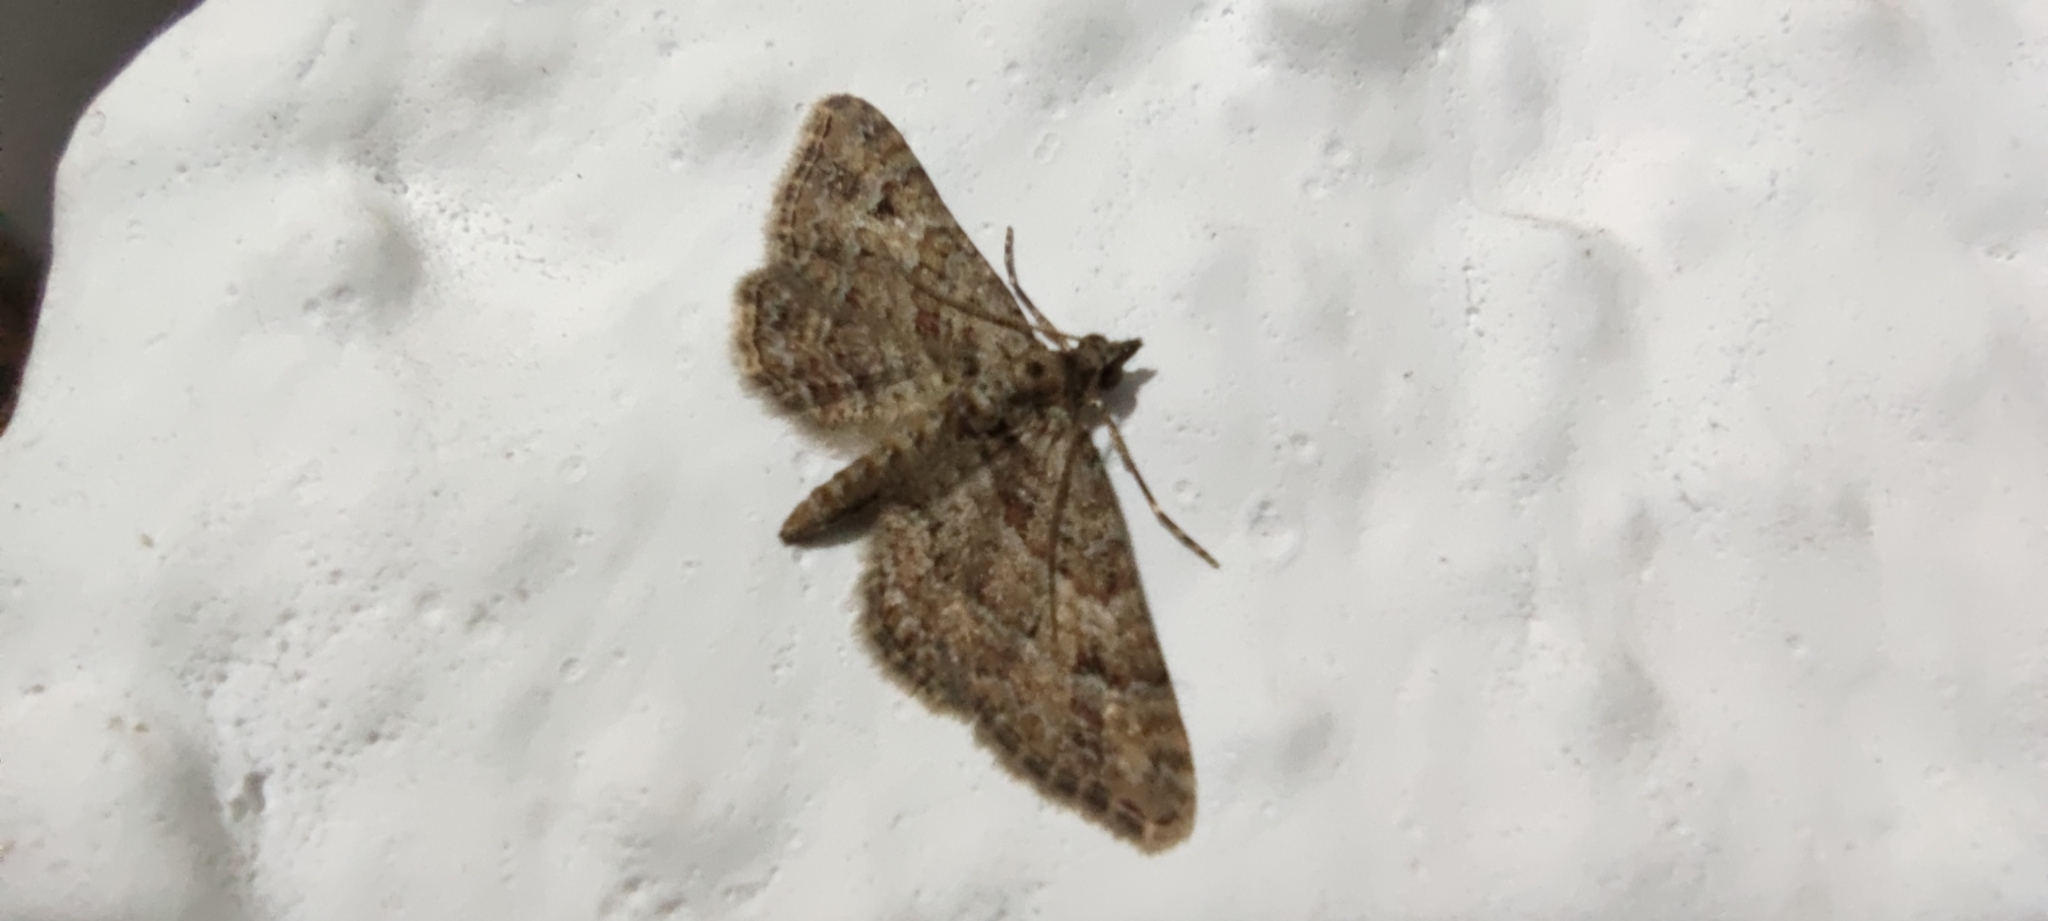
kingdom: Animalia
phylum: Arthropoda
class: Insecta
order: Lepidoptera
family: Geometridae
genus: Gymnoscelis
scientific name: Gymnoscelis rufifasciata
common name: Double-striped pug
